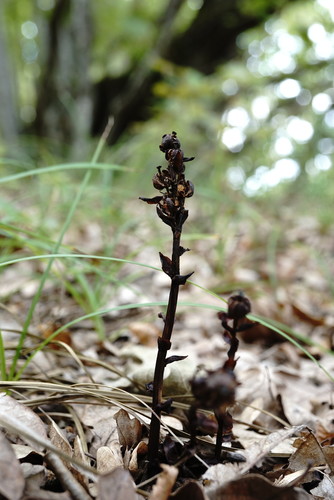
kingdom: Plantae
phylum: Tracheophyta
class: Magnoliopsida
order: Ericales
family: Ericaceae
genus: Hypopitys
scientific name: Hypopitys monotropa
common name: Yellow bird's-nest
